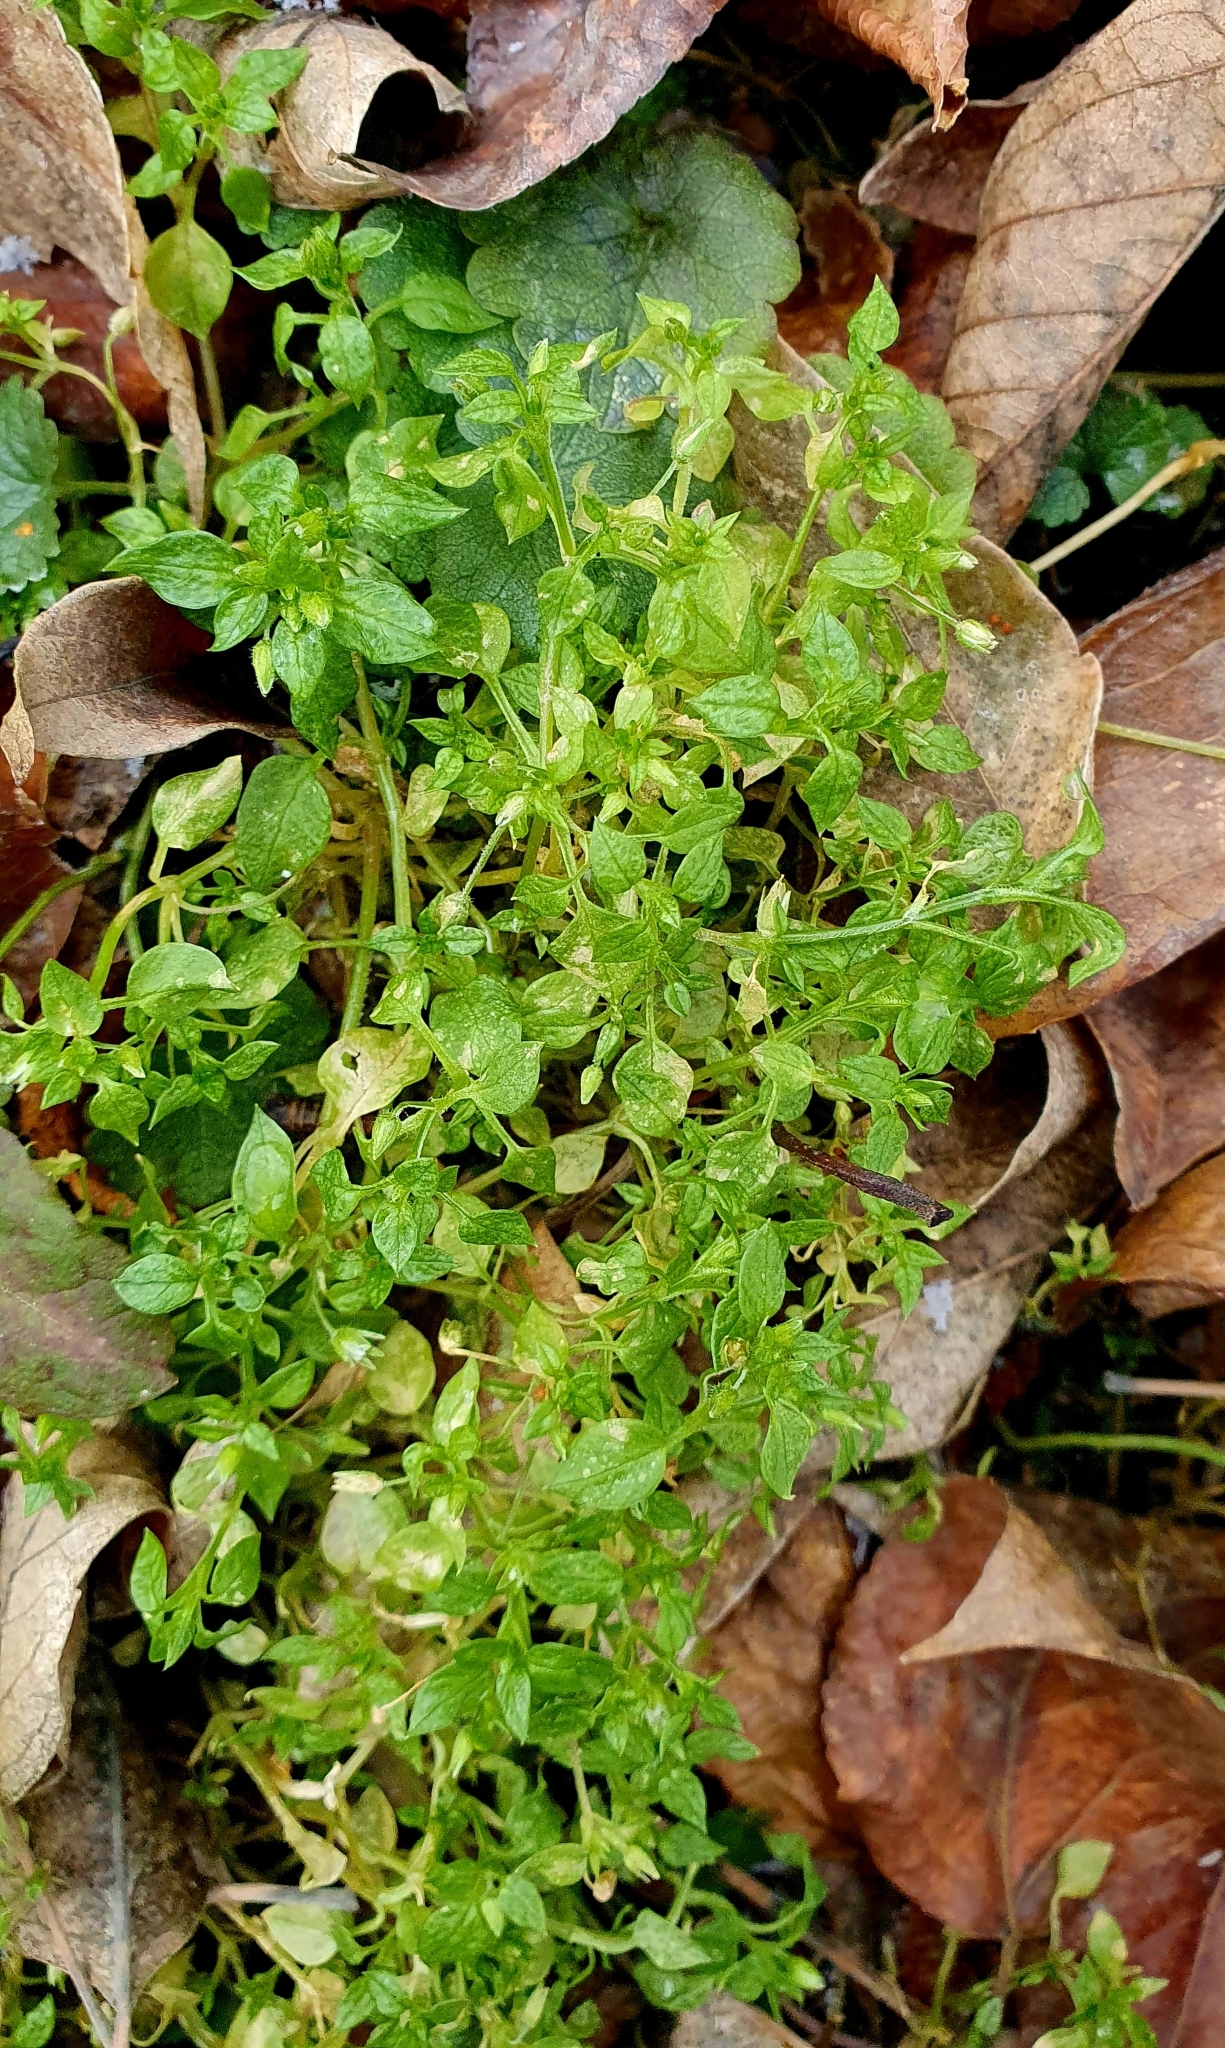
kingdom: Plantae
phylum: Tracheophyta
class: Magnoliopsida
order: Caryophyllales
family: Caryophyllaceae
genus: Stellaria
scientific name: Stellaria media
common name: Common chickweed
